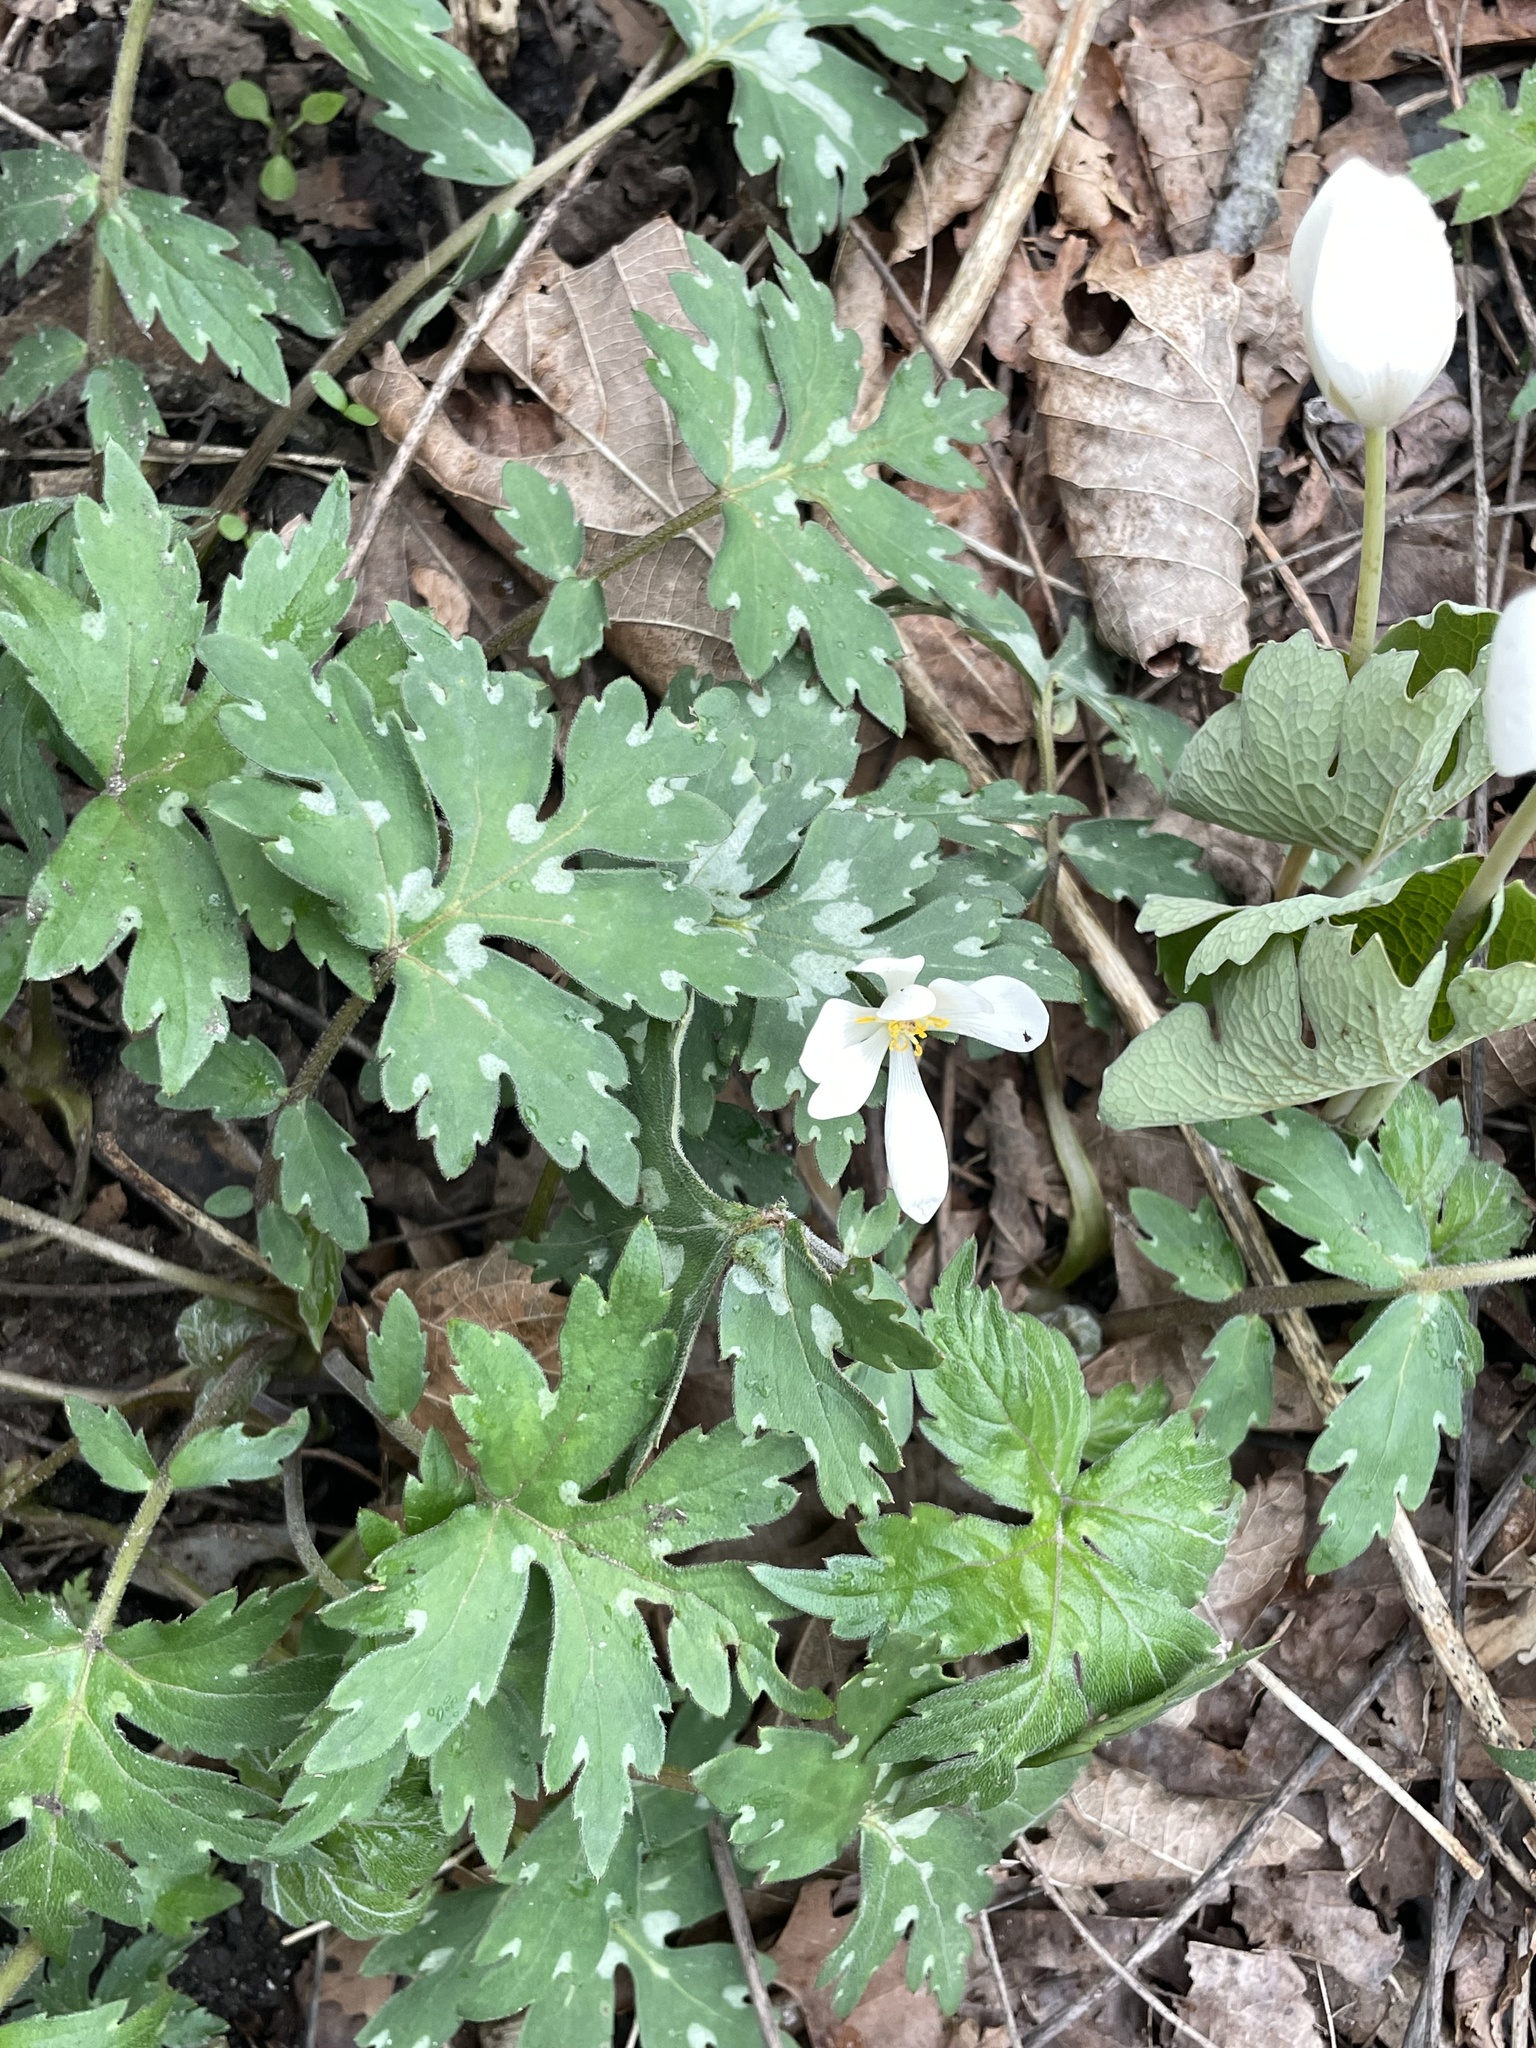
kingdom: Plantae
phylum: Tracheophyta
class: Magnoliopsida
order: Ranunculales
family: Papaveraceae
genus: Sanguinaria
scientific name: Sanguinaria canadensis
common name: Bloodroot
